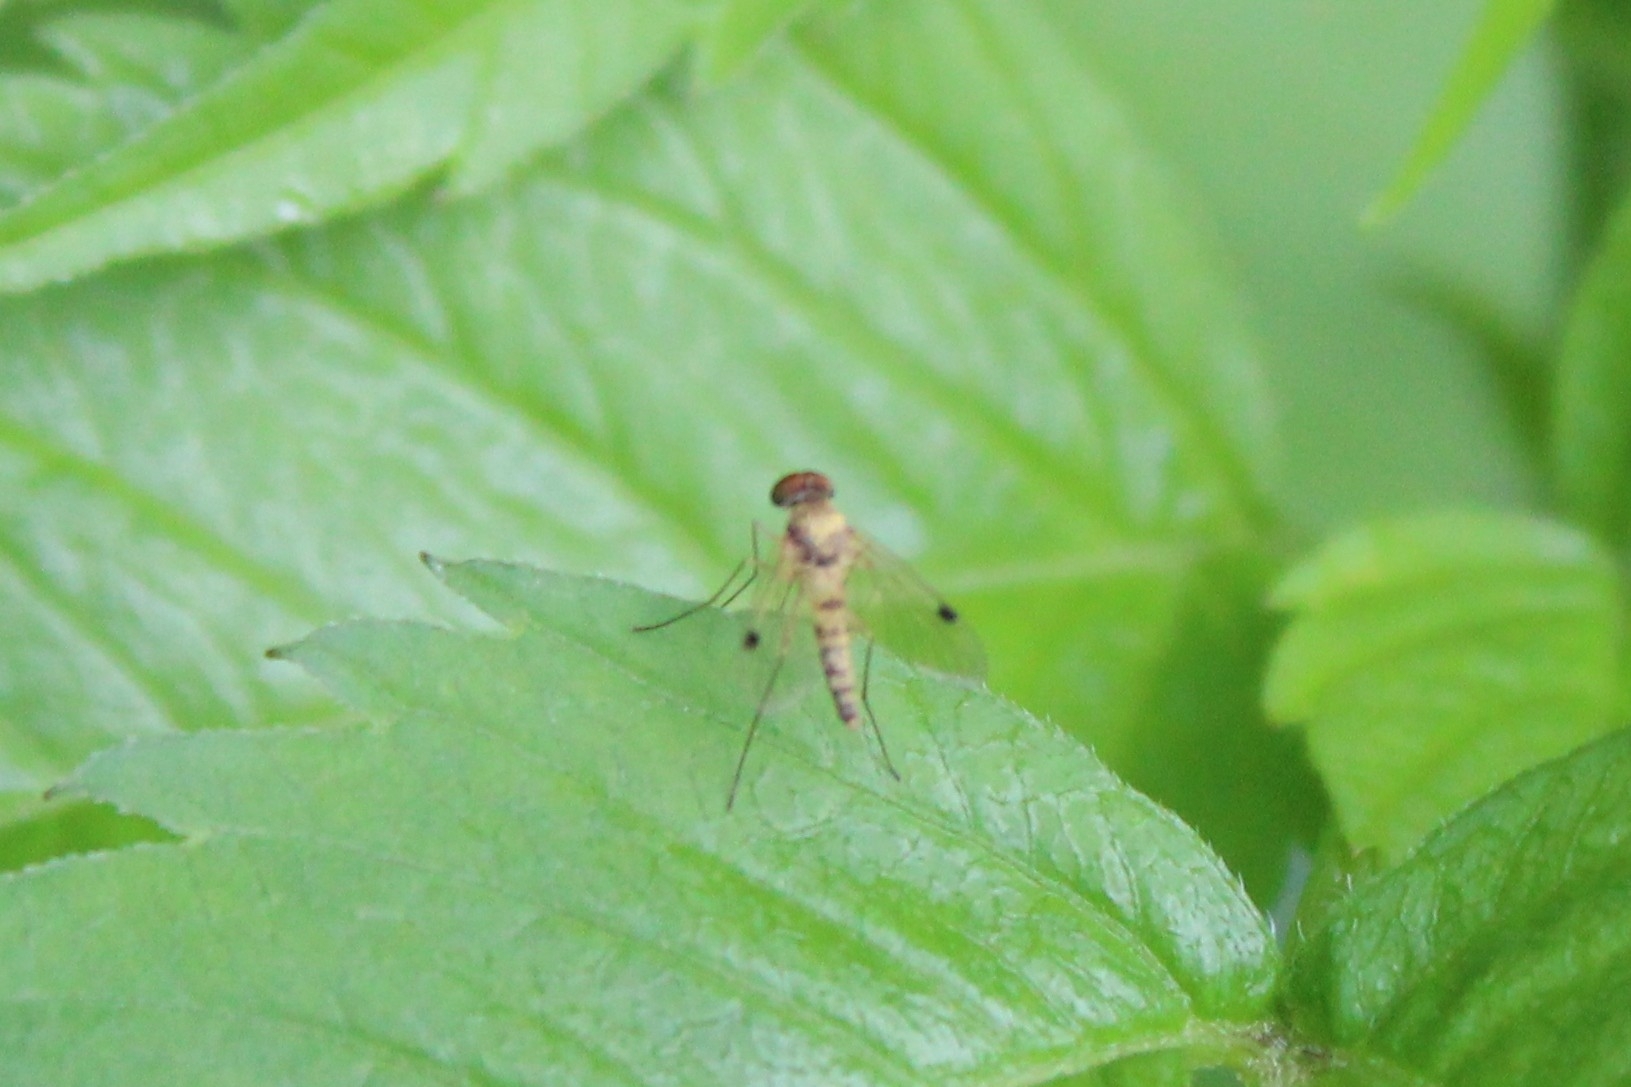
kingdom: Animalia
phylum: Arthropoda
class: Insecta
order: Diptera
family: Rhagionidae
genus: Chrysopilus
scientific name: Chrysopilus modestus
